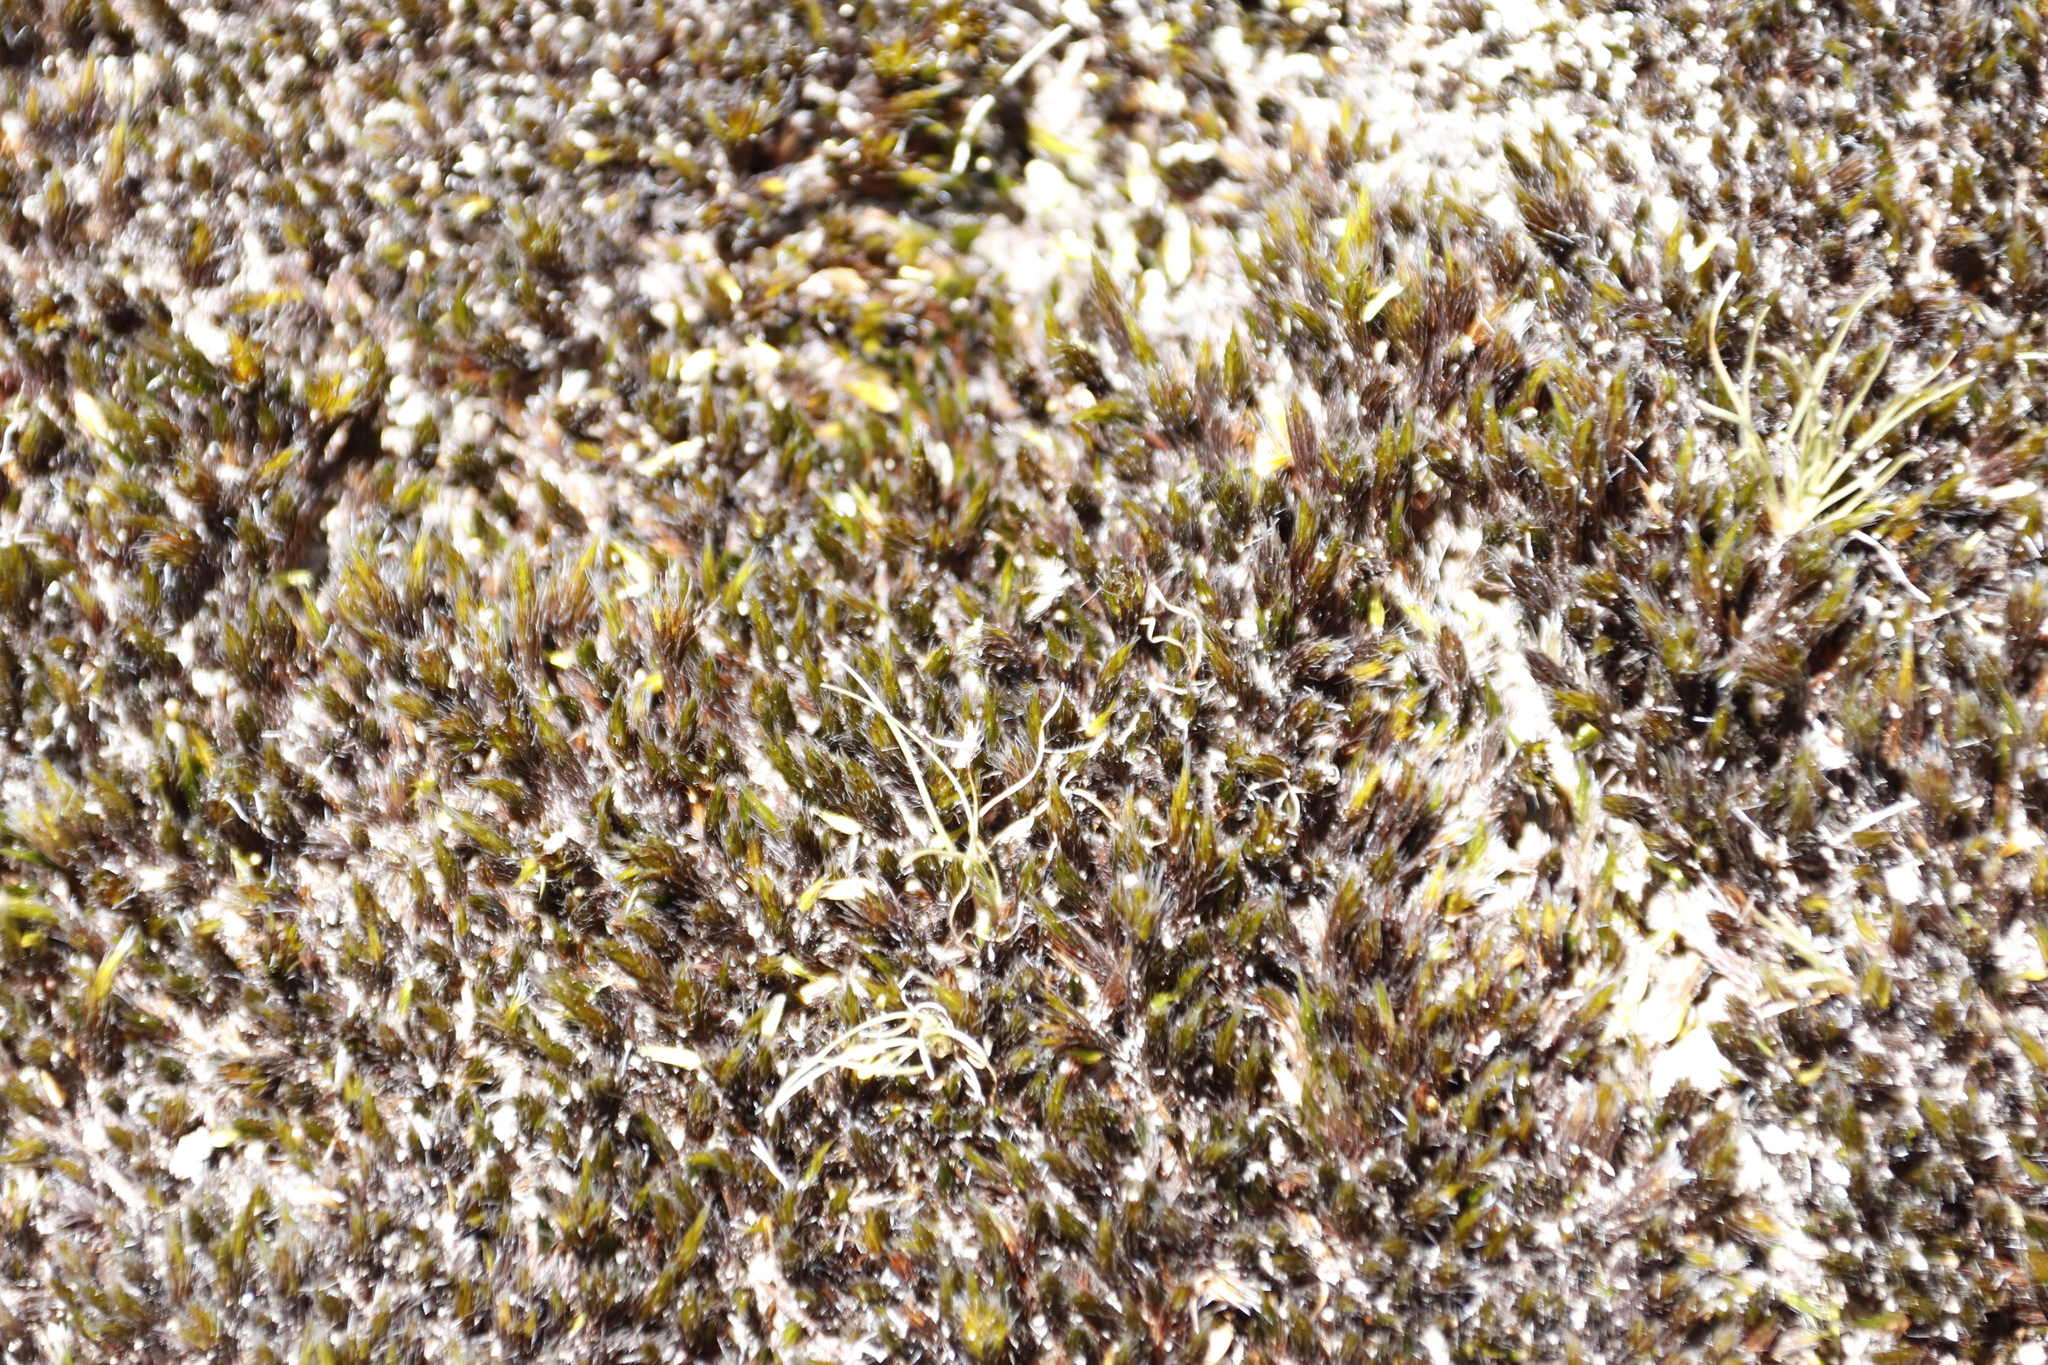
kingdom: Plantae
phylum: Bryophyta
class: Bryopsida
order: Dicranales
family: Leucobryaceae
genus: Campylopus
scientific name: Campylopus pilifer
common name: Campylopus moss
